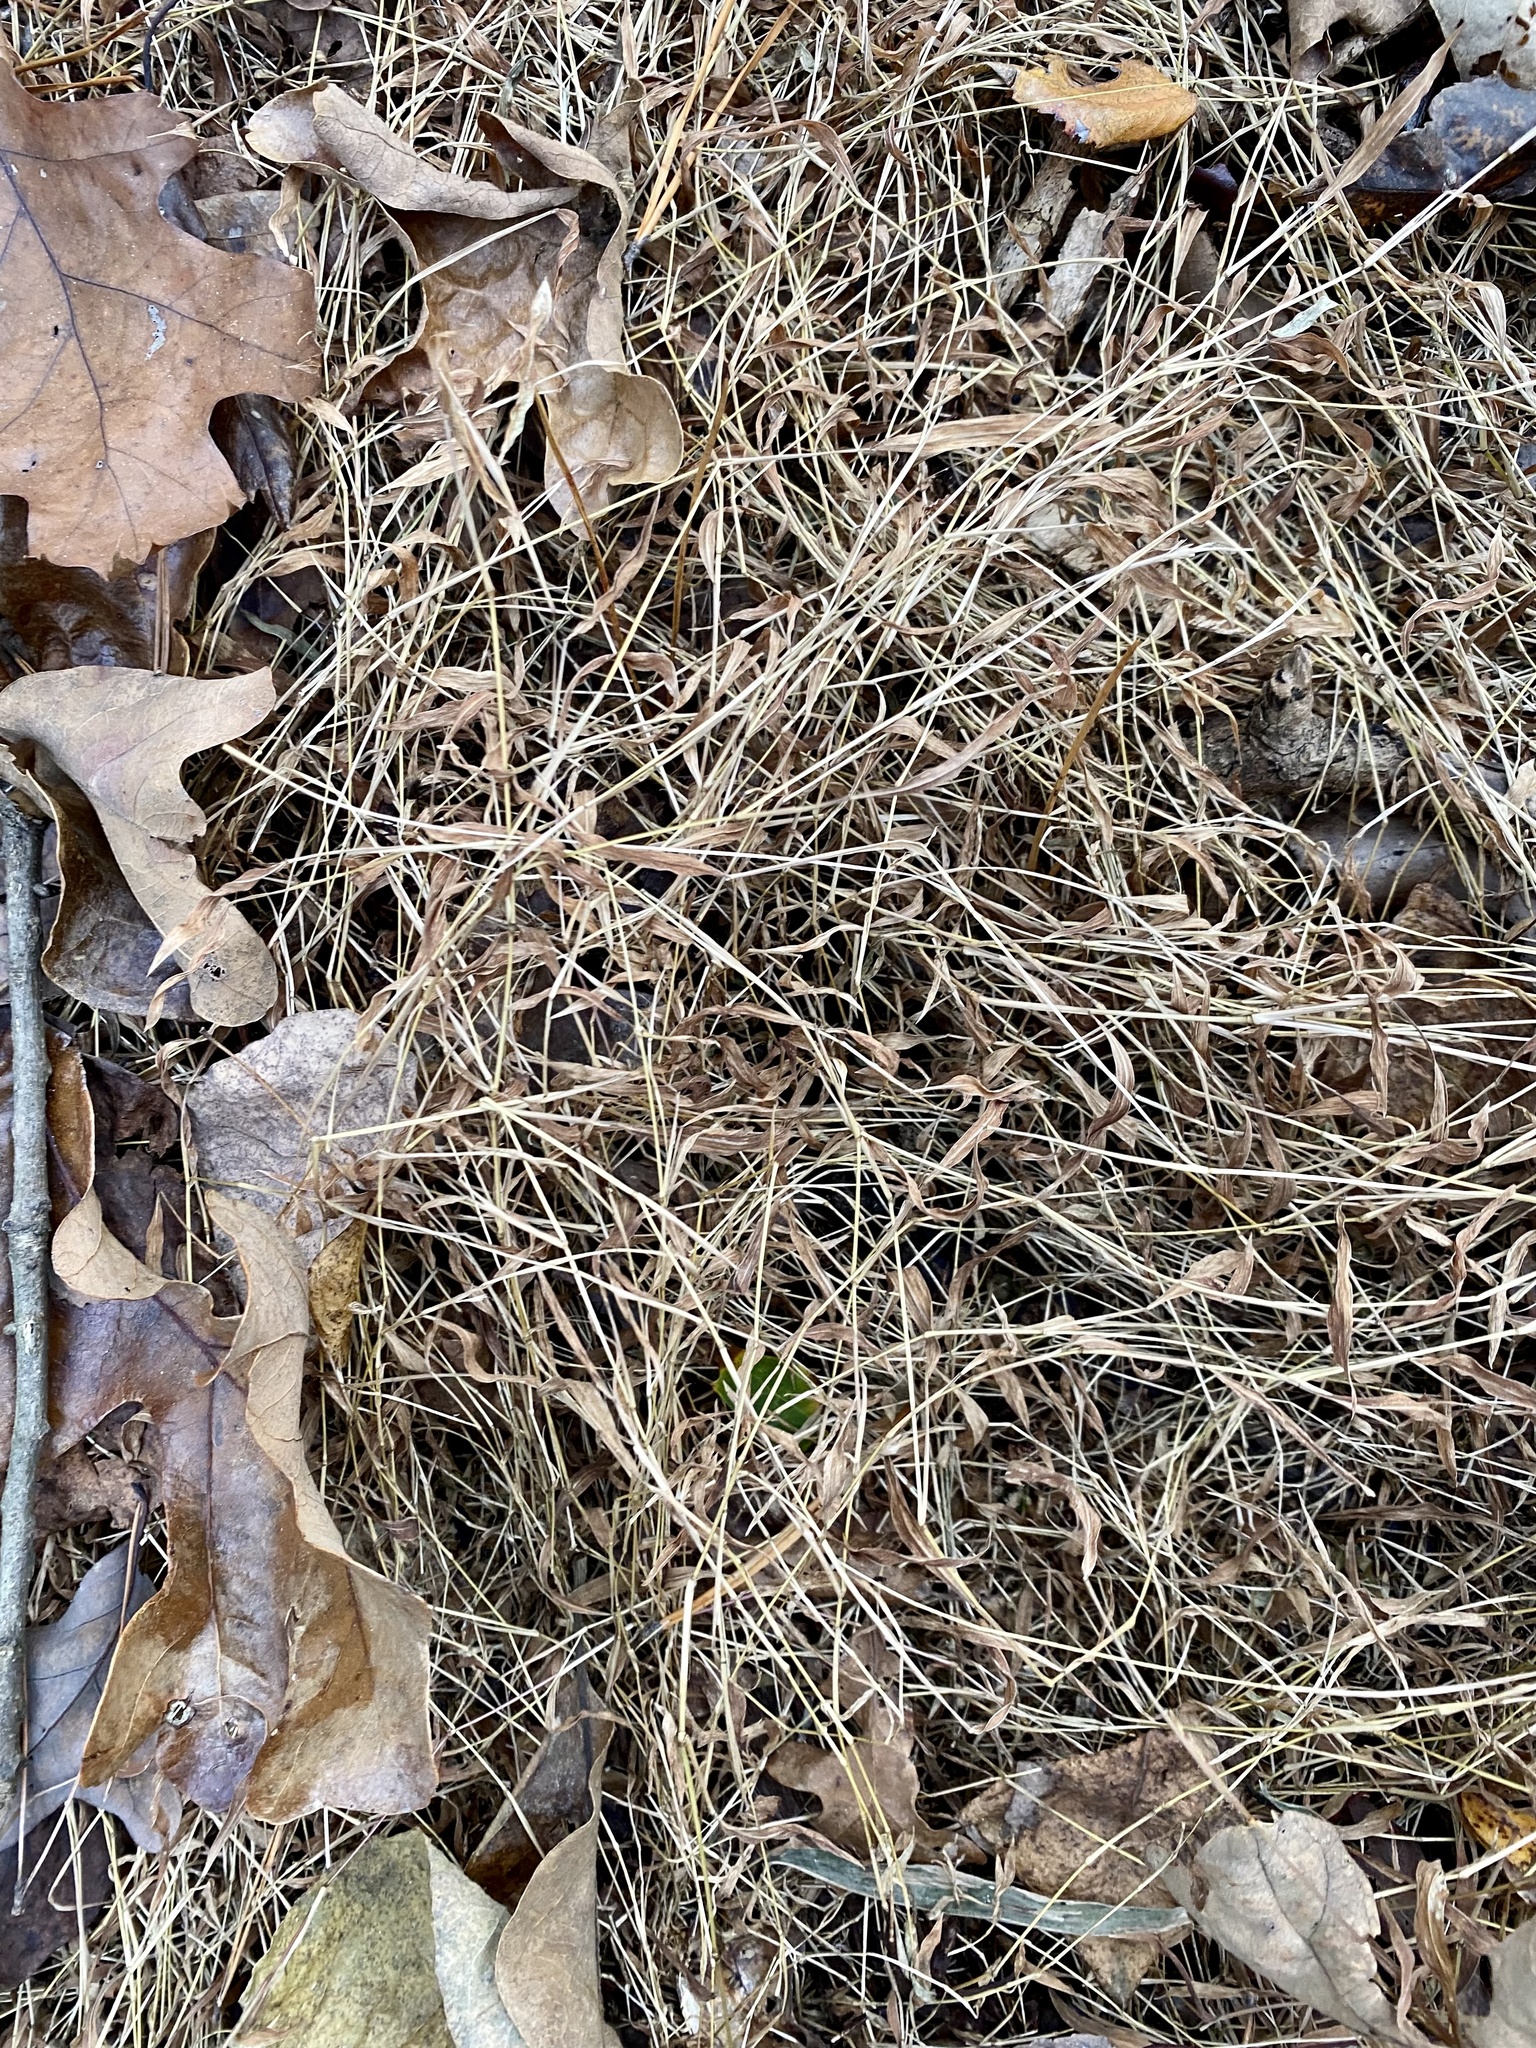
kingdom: Plantae
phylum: Tracheophyta
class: Liliopsida
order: Poales
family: Poaceae
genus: Microstegium
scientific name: Microstegium vimineum
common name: Japanese stiltgrass
